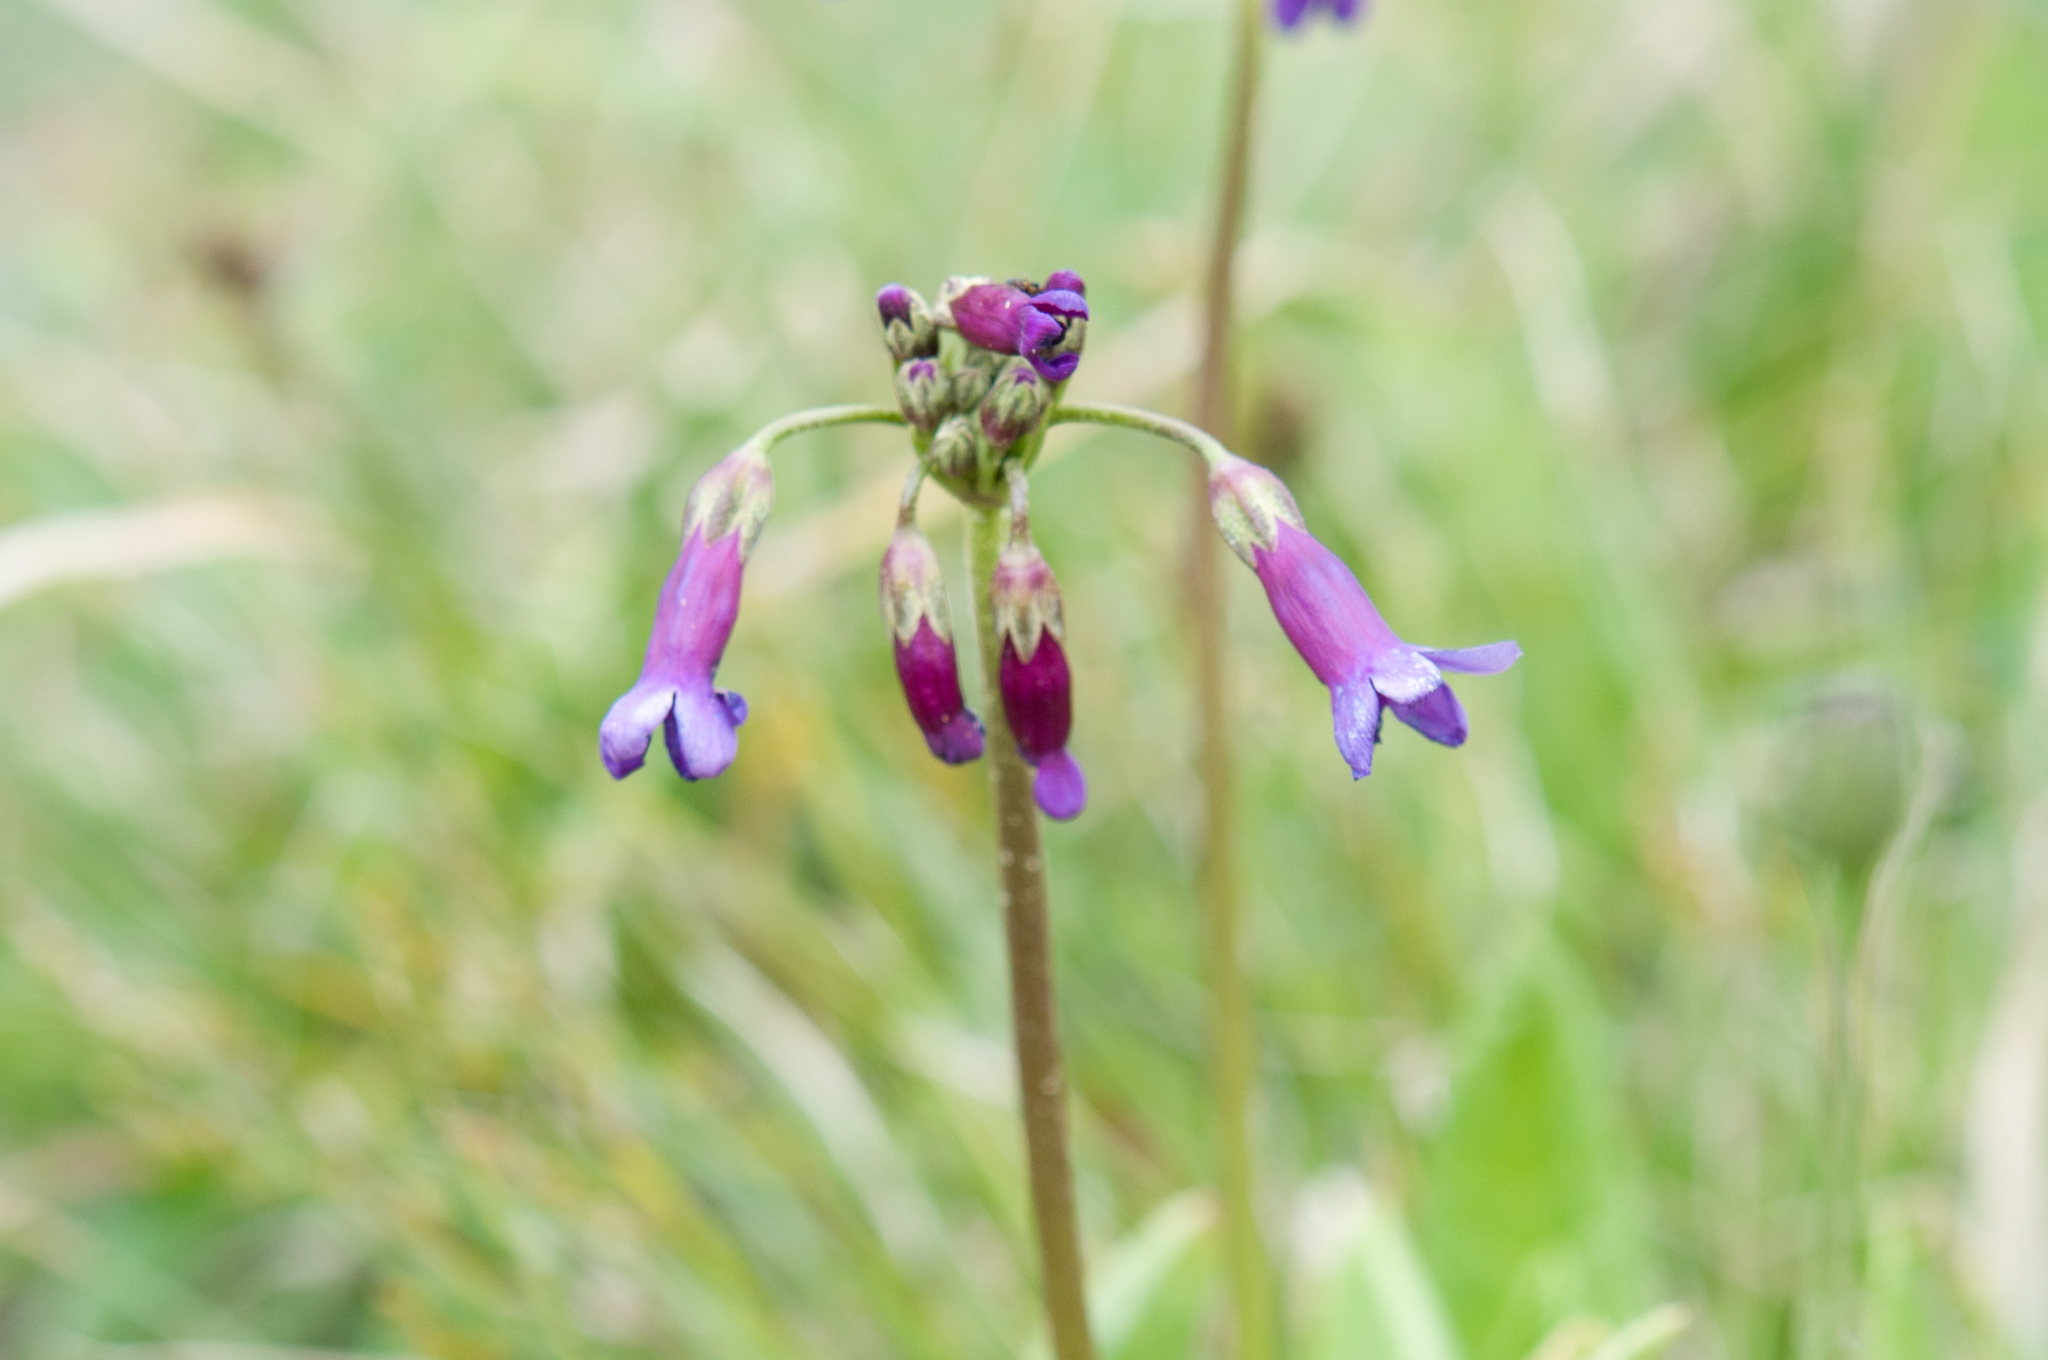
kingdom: Plantae
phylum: Tracheophyta
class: Magnoliopsida
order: Ericales
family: Primulaceae
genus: Primula
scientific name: Primula miyabeana
